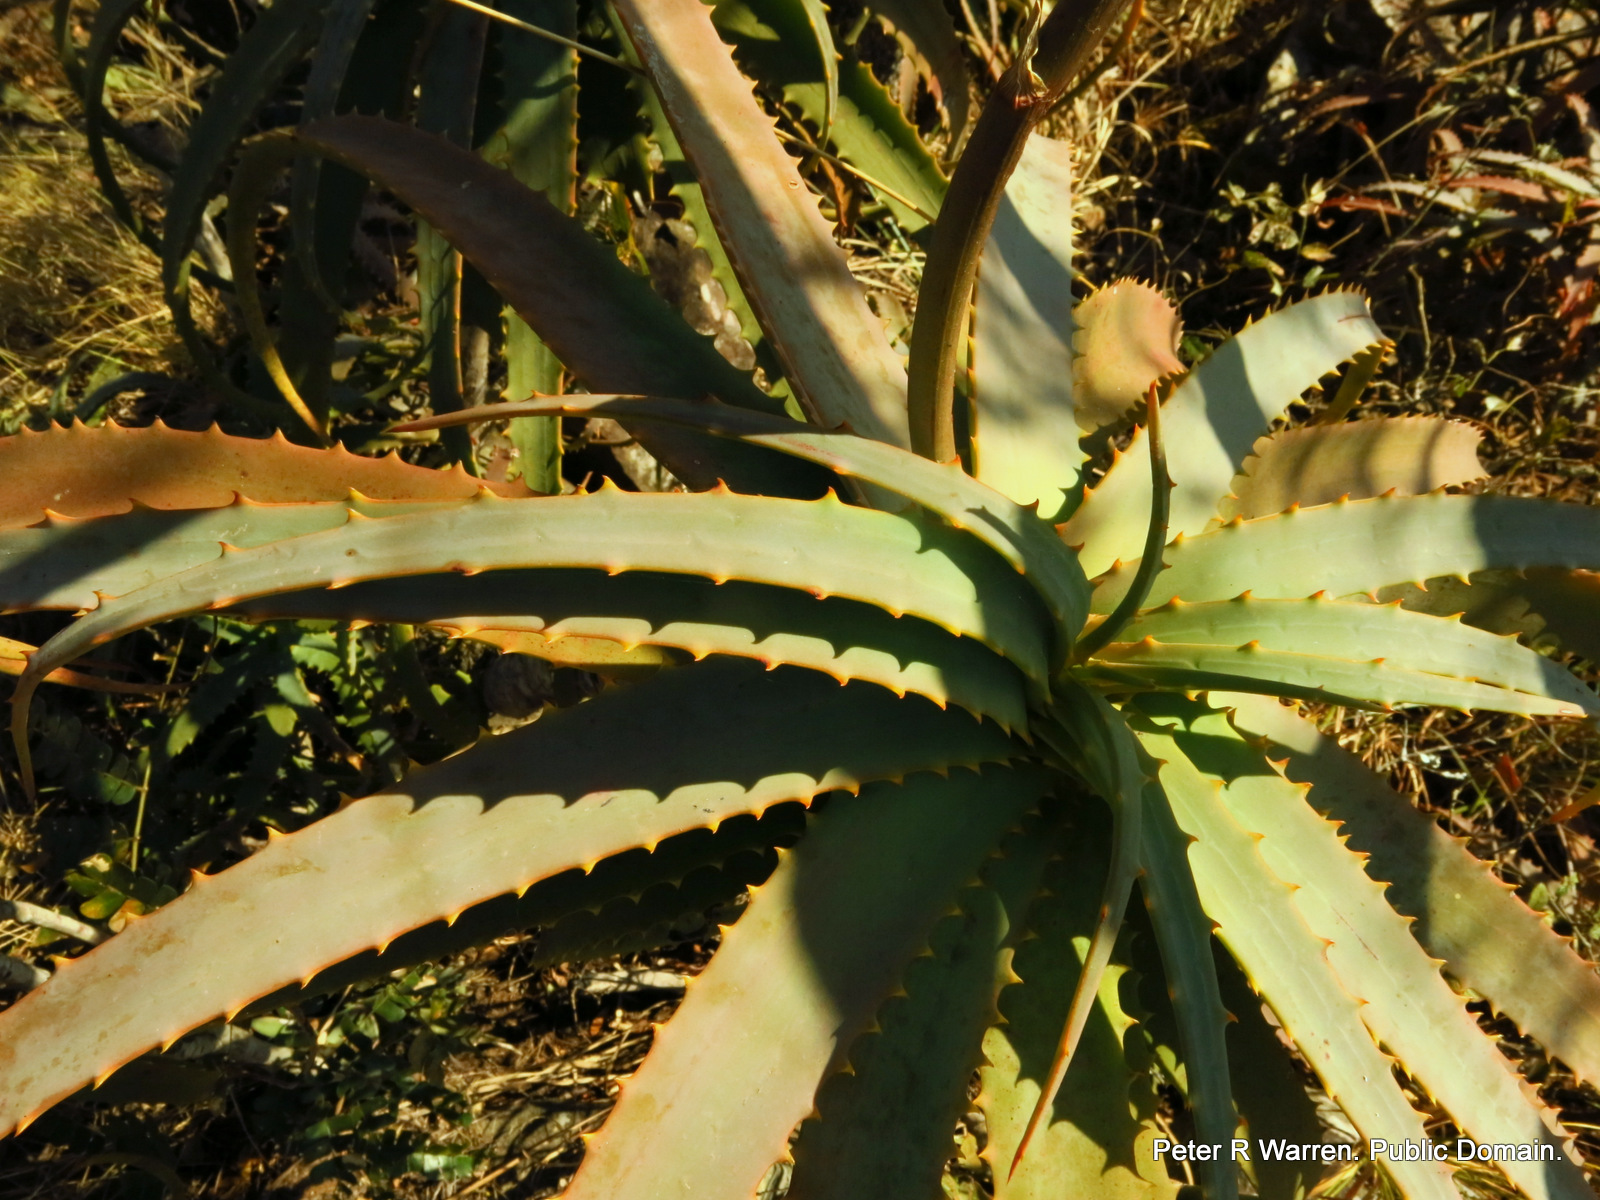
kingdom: Plantae
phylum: Tracheophyta
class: Liliopsida
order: Asparagales
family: Asphodelaceae
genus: Aloe
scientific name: Aloe arborescens
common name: Candelabra aloe
